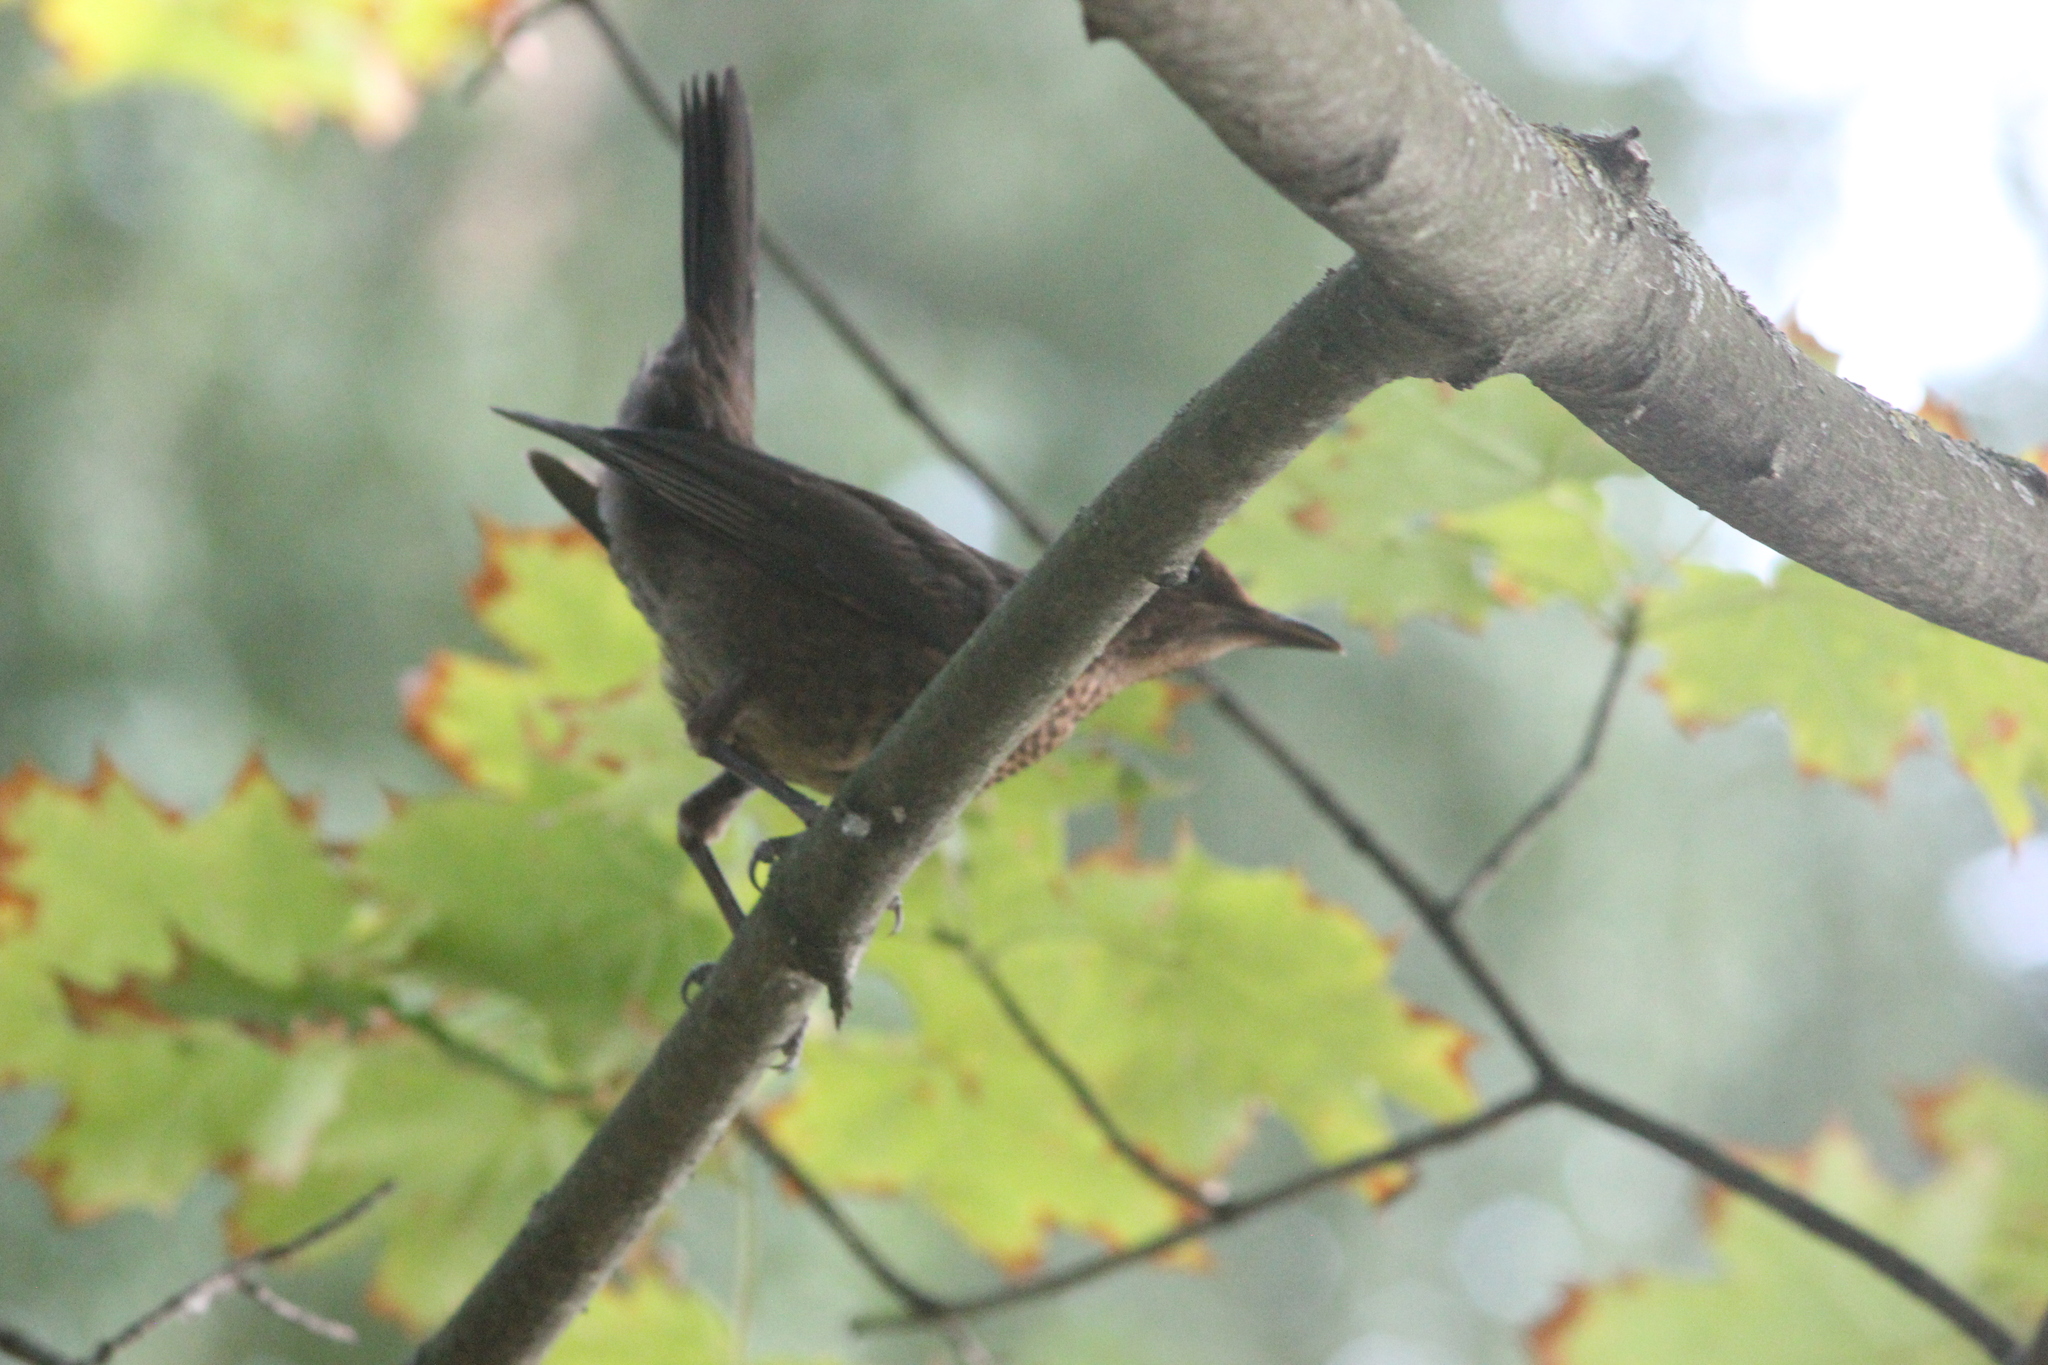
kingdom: Animalia
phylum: Chordata
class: Aves
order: Passeriformes
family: Turdidae
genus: Turdus
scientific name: Turdus merula
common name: Common blackbird
